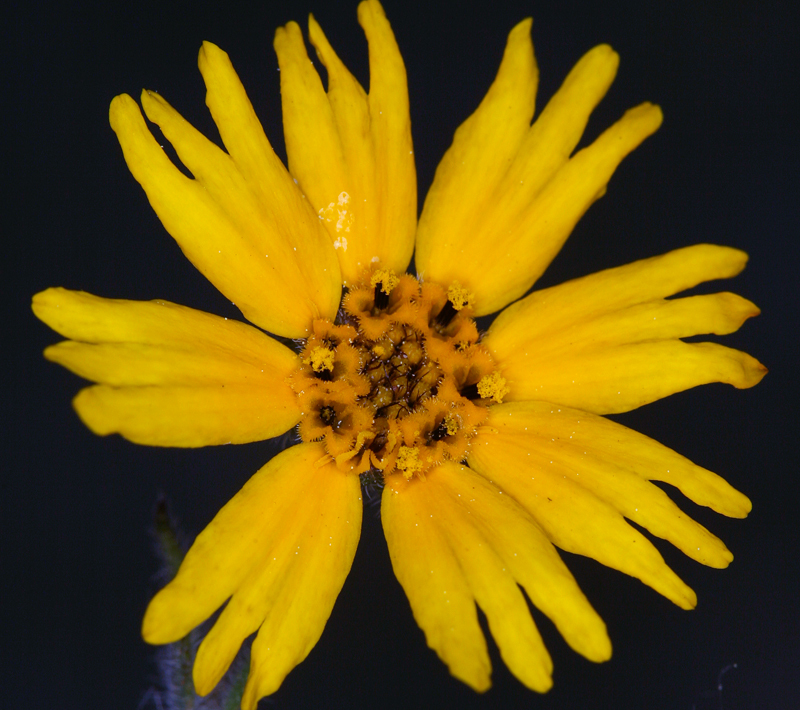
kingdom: Plantae
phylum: Tracheophyta
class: Magnoliopsida
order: Asterales
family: Asteraceae
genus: Jensia
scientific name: Jensia rammii
